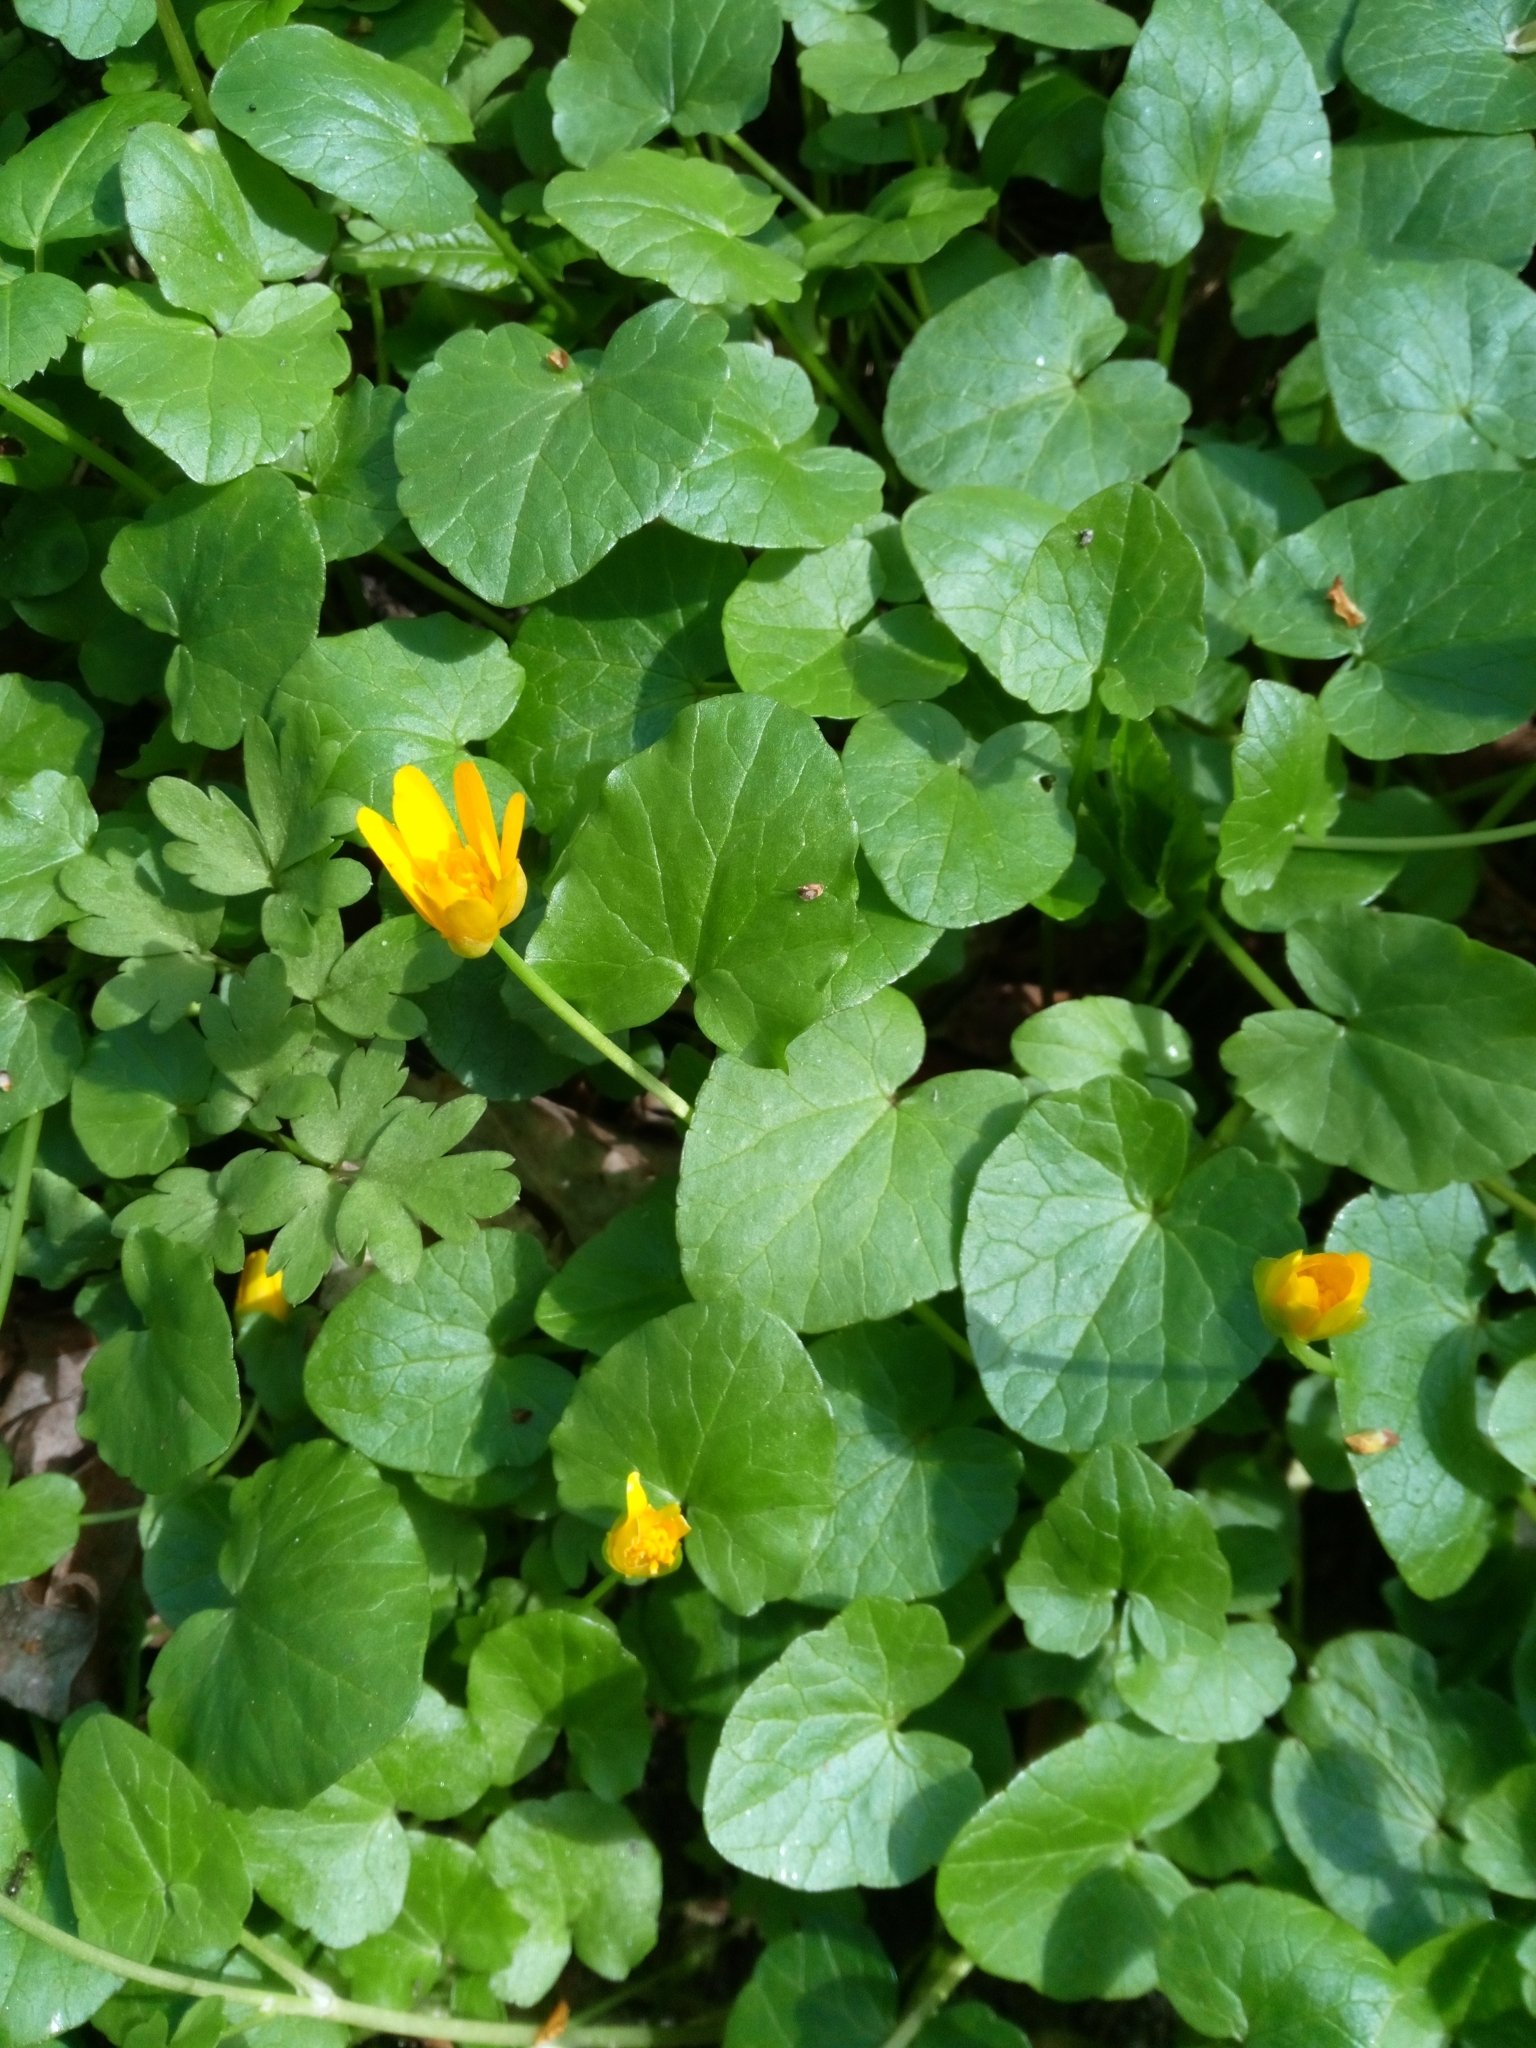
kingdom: Plantae
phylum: Tracheophyta
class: Magnoliopsida
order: Ranunculales
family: Ranunculaceae
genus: Ficaria
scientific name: Ficaria verna
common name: Lesser celandine
